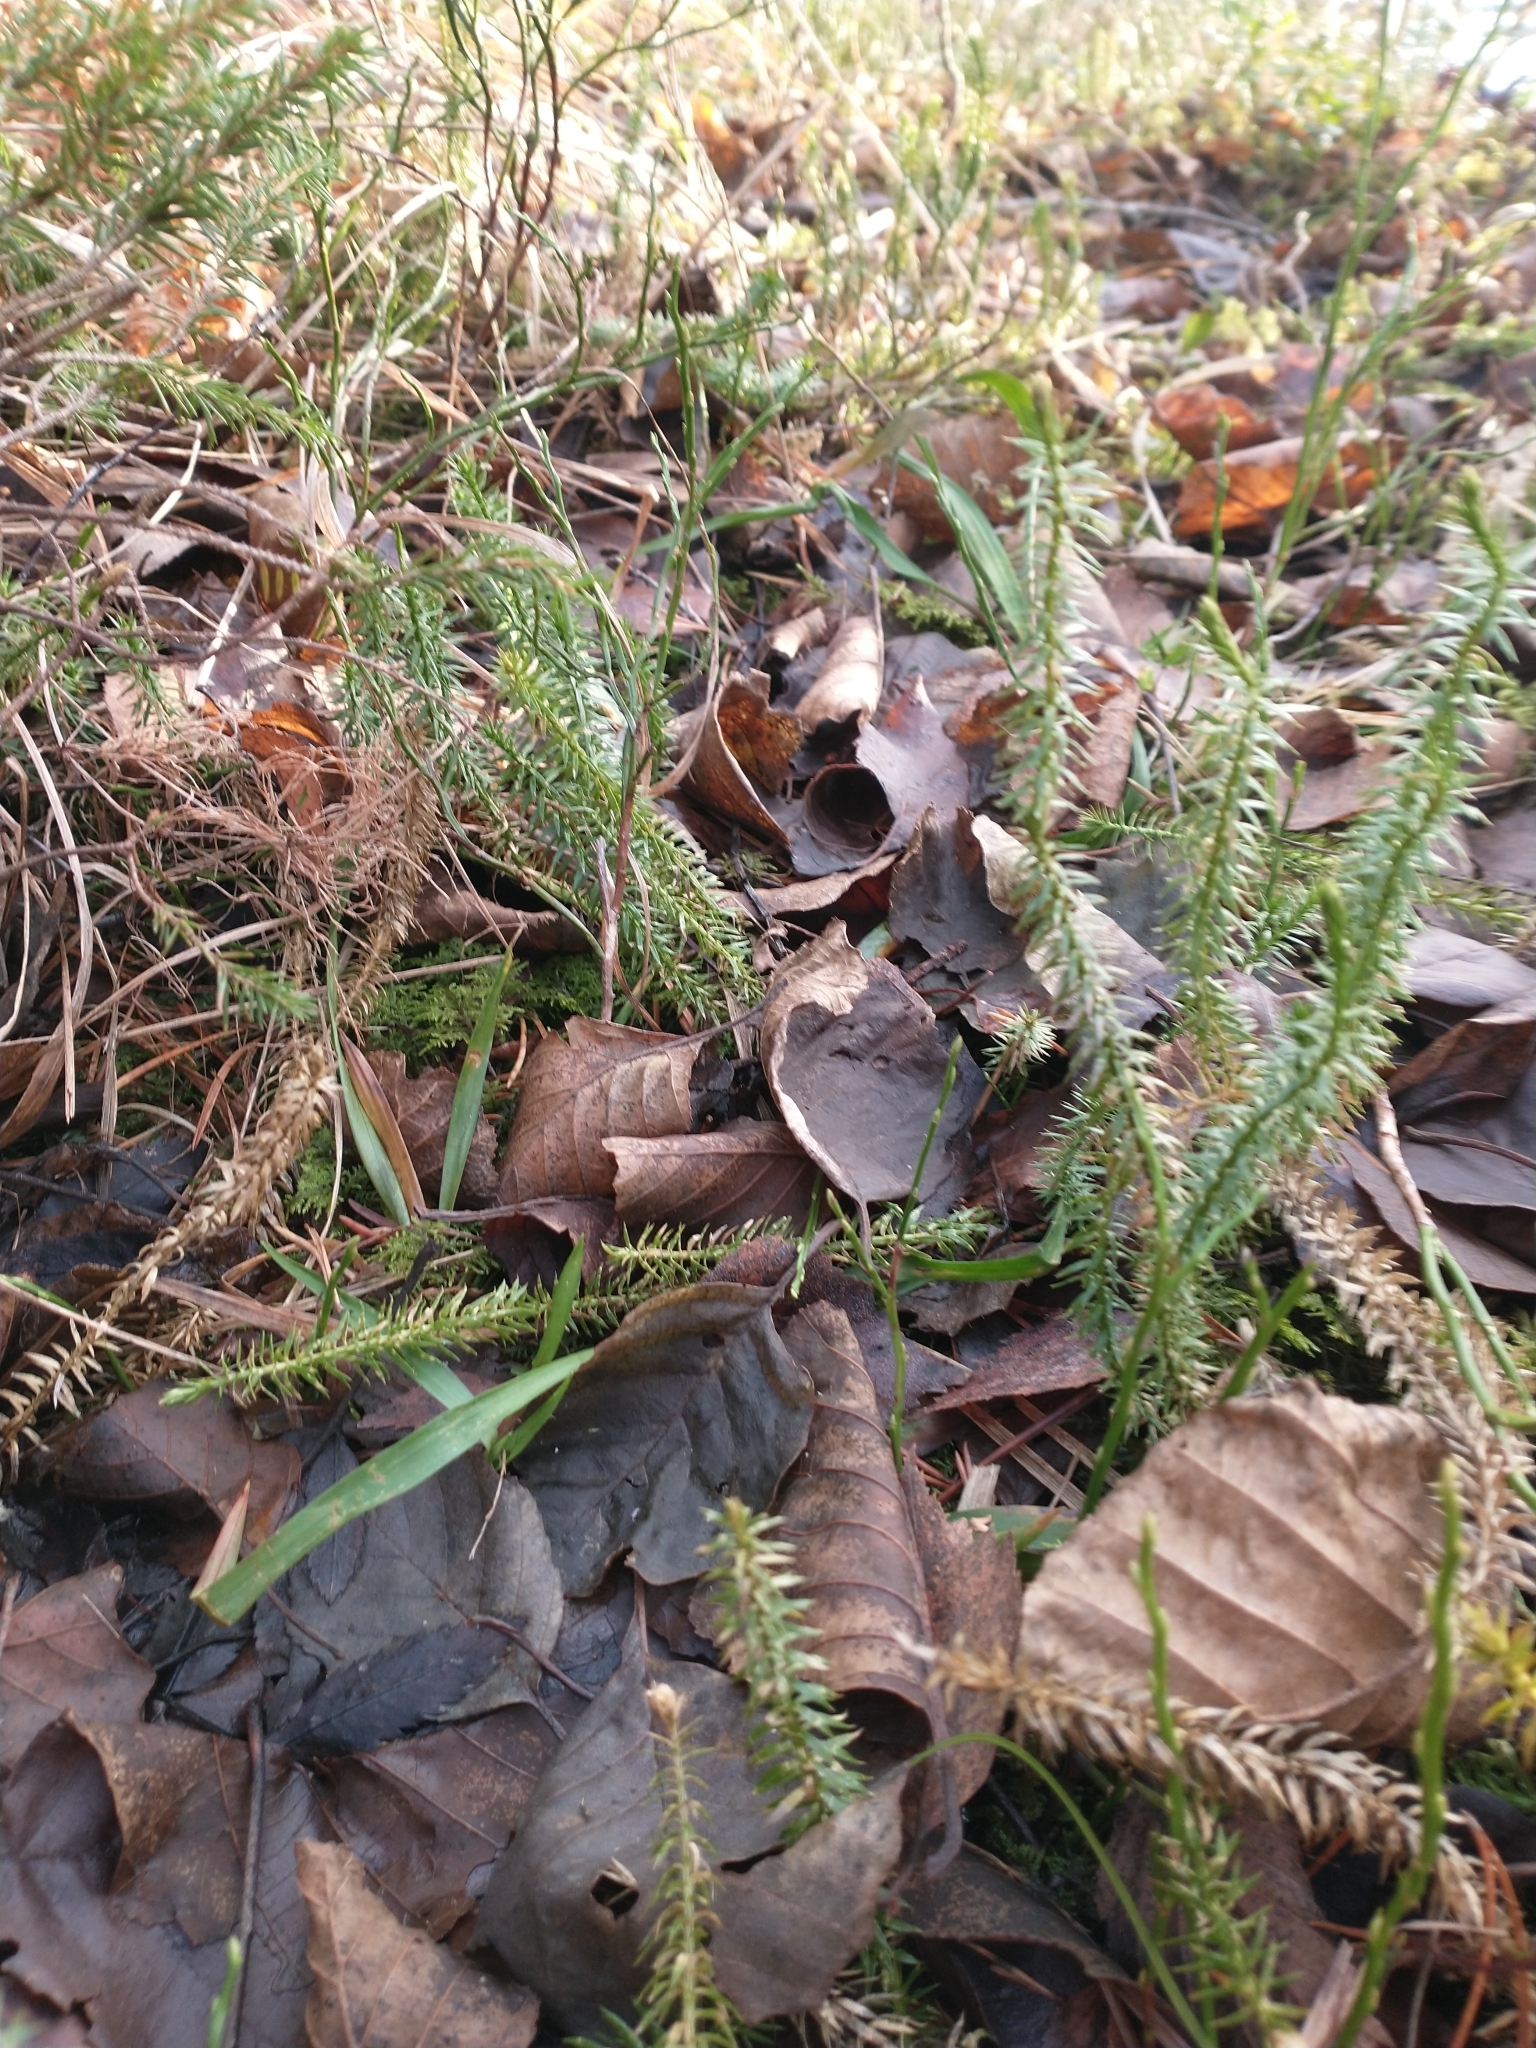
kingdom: Plantae
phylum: Tracheophyta
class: Lycopodiopsida
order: Lycopodiales
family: Lycopodiaceae
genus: Spinulum
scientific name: Spinulum annotinum
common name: Interrupted club-moss
